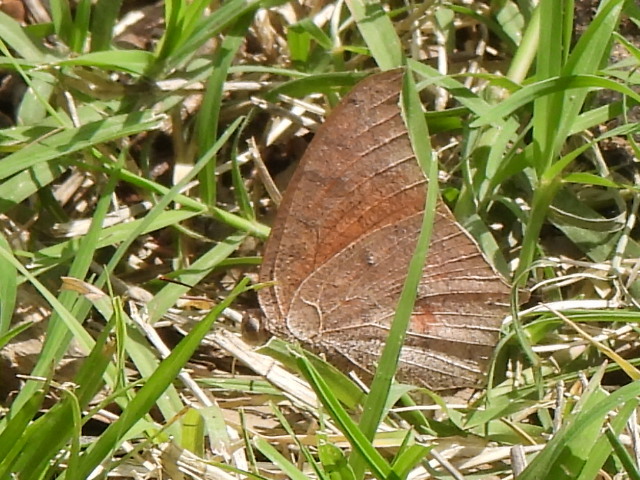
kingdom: Animalia
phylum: Arthropoda
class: Insecta
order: Lepidoptera
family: Nymphalidae
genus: Anaea
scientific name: Anaea andria
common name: Goatweed leafwing
